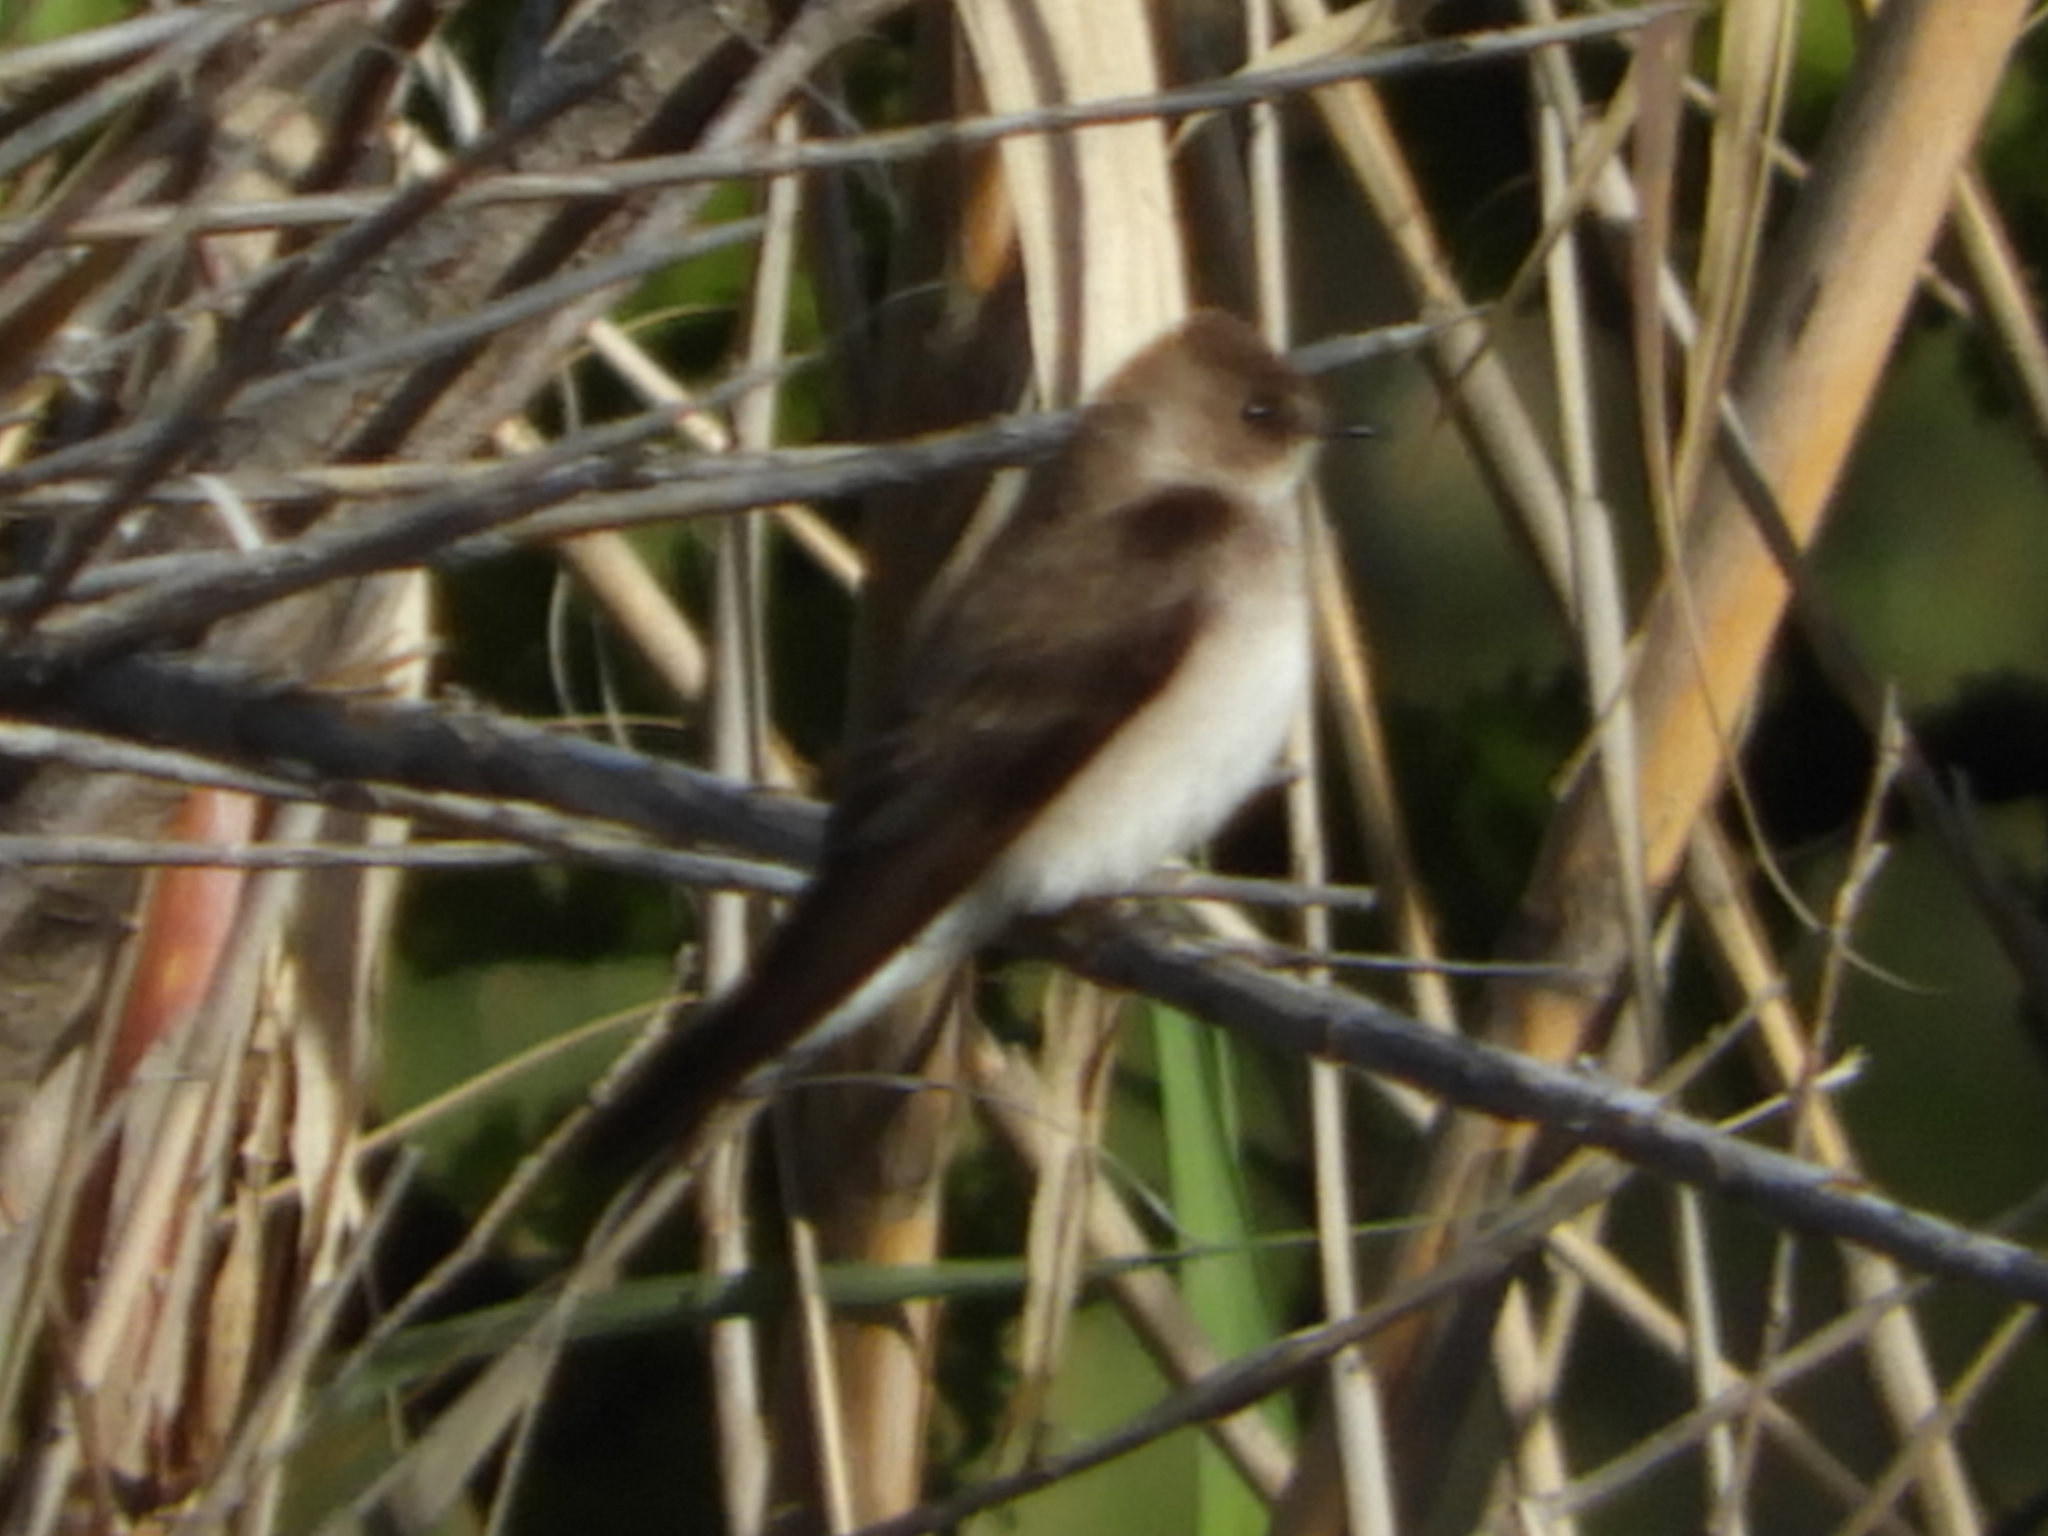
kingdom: Animalia
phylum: Chordata
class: Aves
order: Passeriformes
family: Hirundinidae
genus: Stelgidopteryx
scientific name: Stelgidopteryx serripennis
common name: Northern rough-winged swallow
